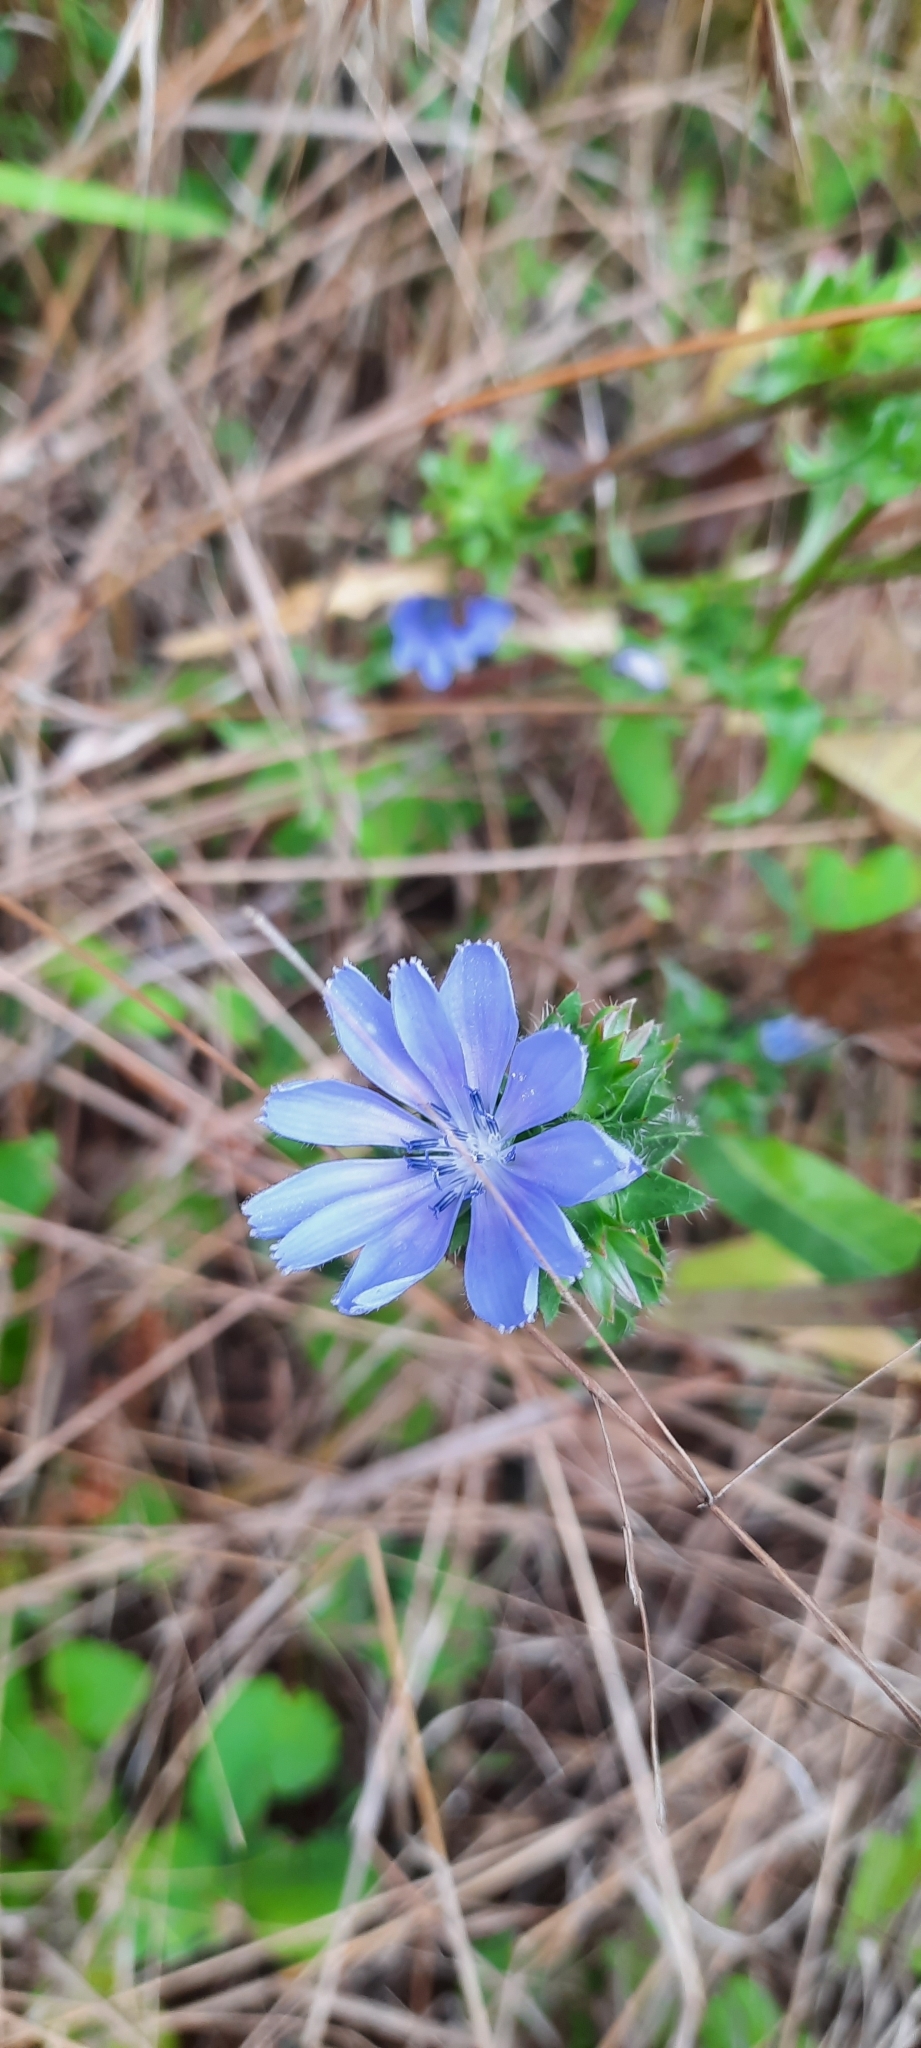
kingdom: Plantae
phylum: Tracheophyta
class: Magnoliopsida
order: Asterales
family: Asteraceae
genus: Cichorium
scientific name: Cichorium intybus
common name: Chicory
